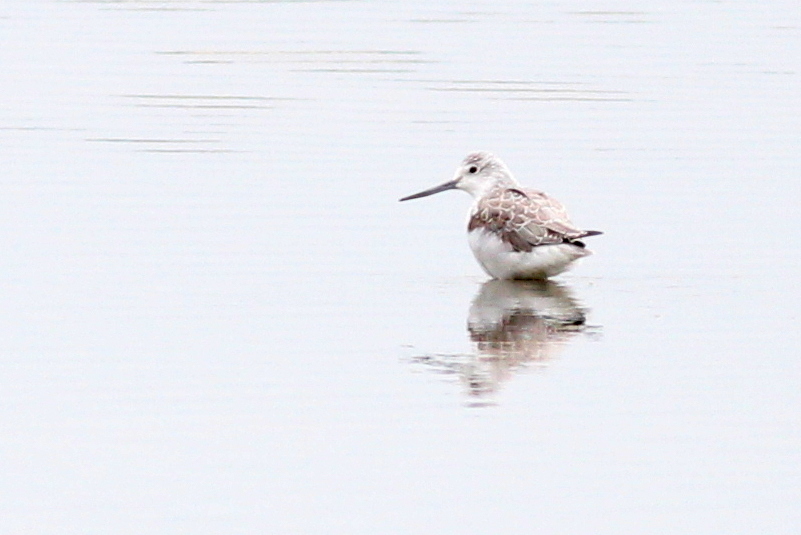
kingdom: Animalia
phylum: Chordata
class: Aves
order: Charadriiformes
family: Scolopacidae
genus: Tringa
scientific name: Tringa nebularia
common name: Common greenshank
